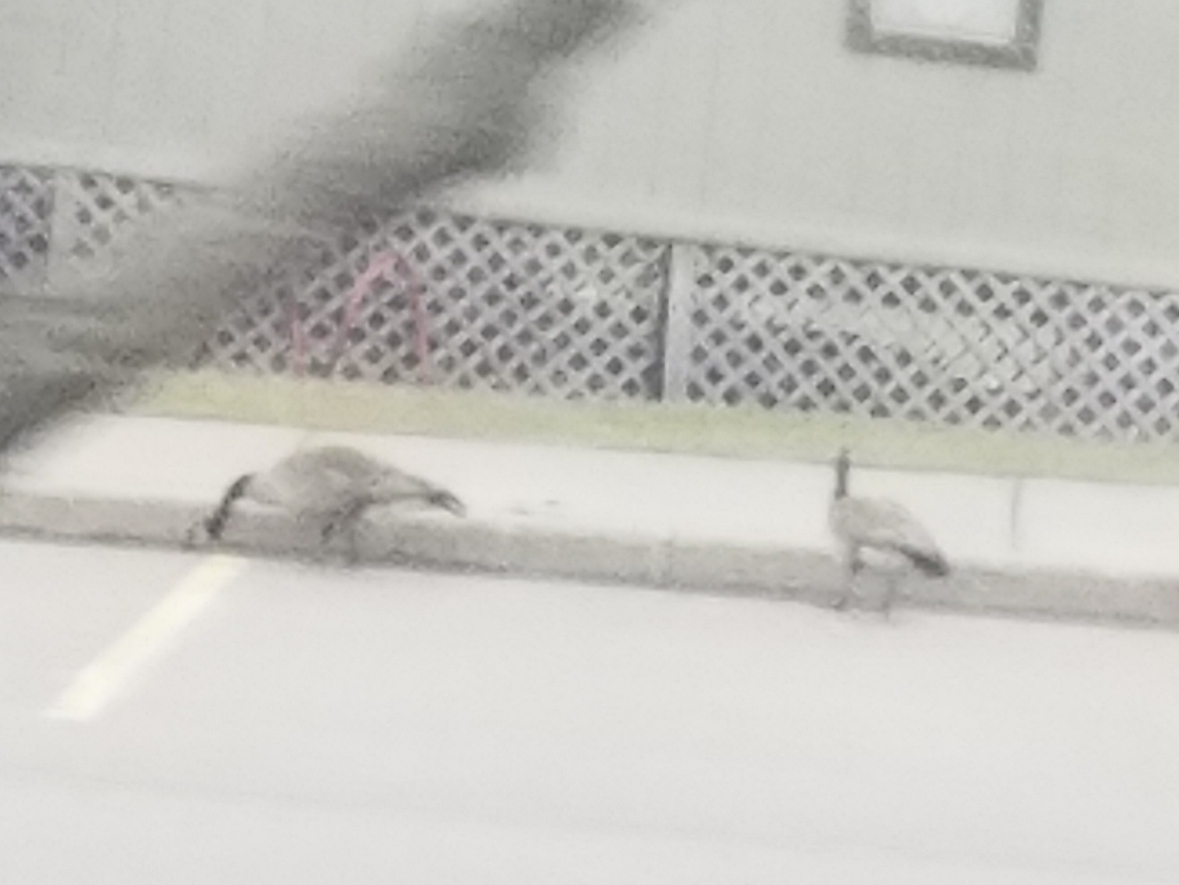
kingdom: Animalia
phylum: Chordata
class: Aves
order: Anseriformes
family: Anatidae
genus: Branta
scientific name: Branta canadensis
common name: Canada goose
